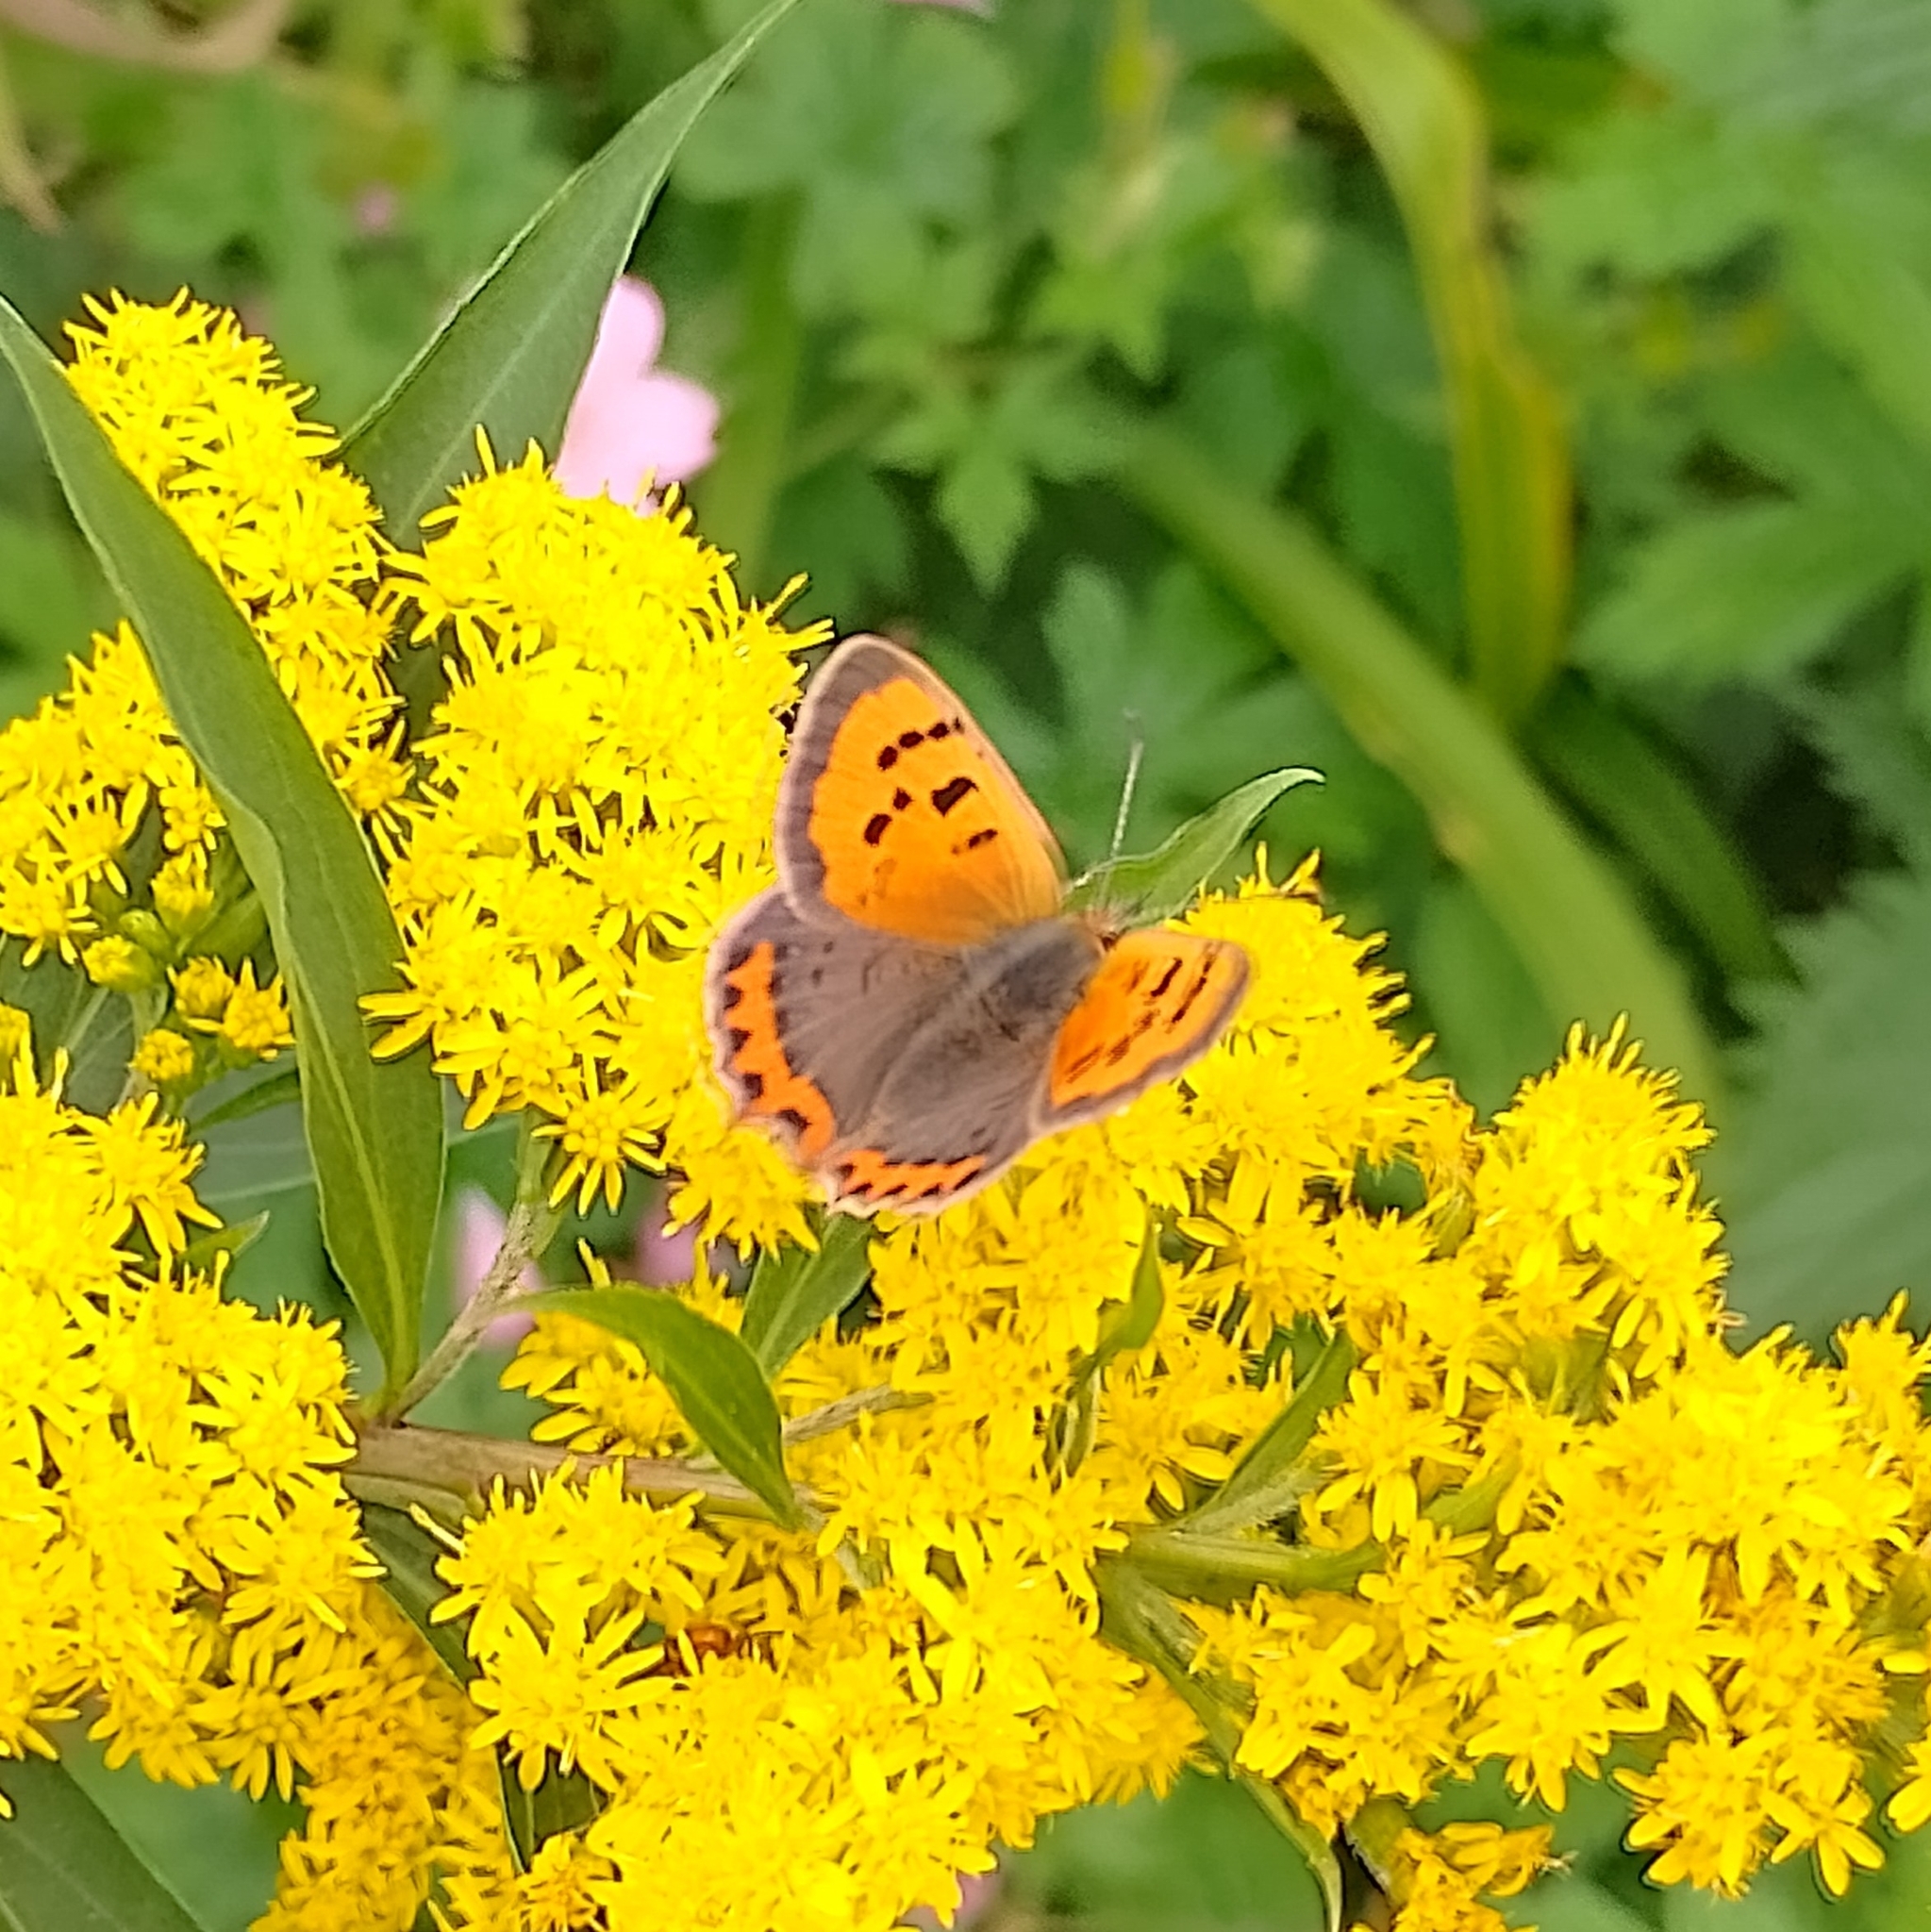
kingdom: Animalia
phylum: Arthropoda
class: Insecta
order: Lepidoptera
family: Lycaenidae
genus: Lycaena
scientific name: Lycaena phlaeas
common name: Small copper
